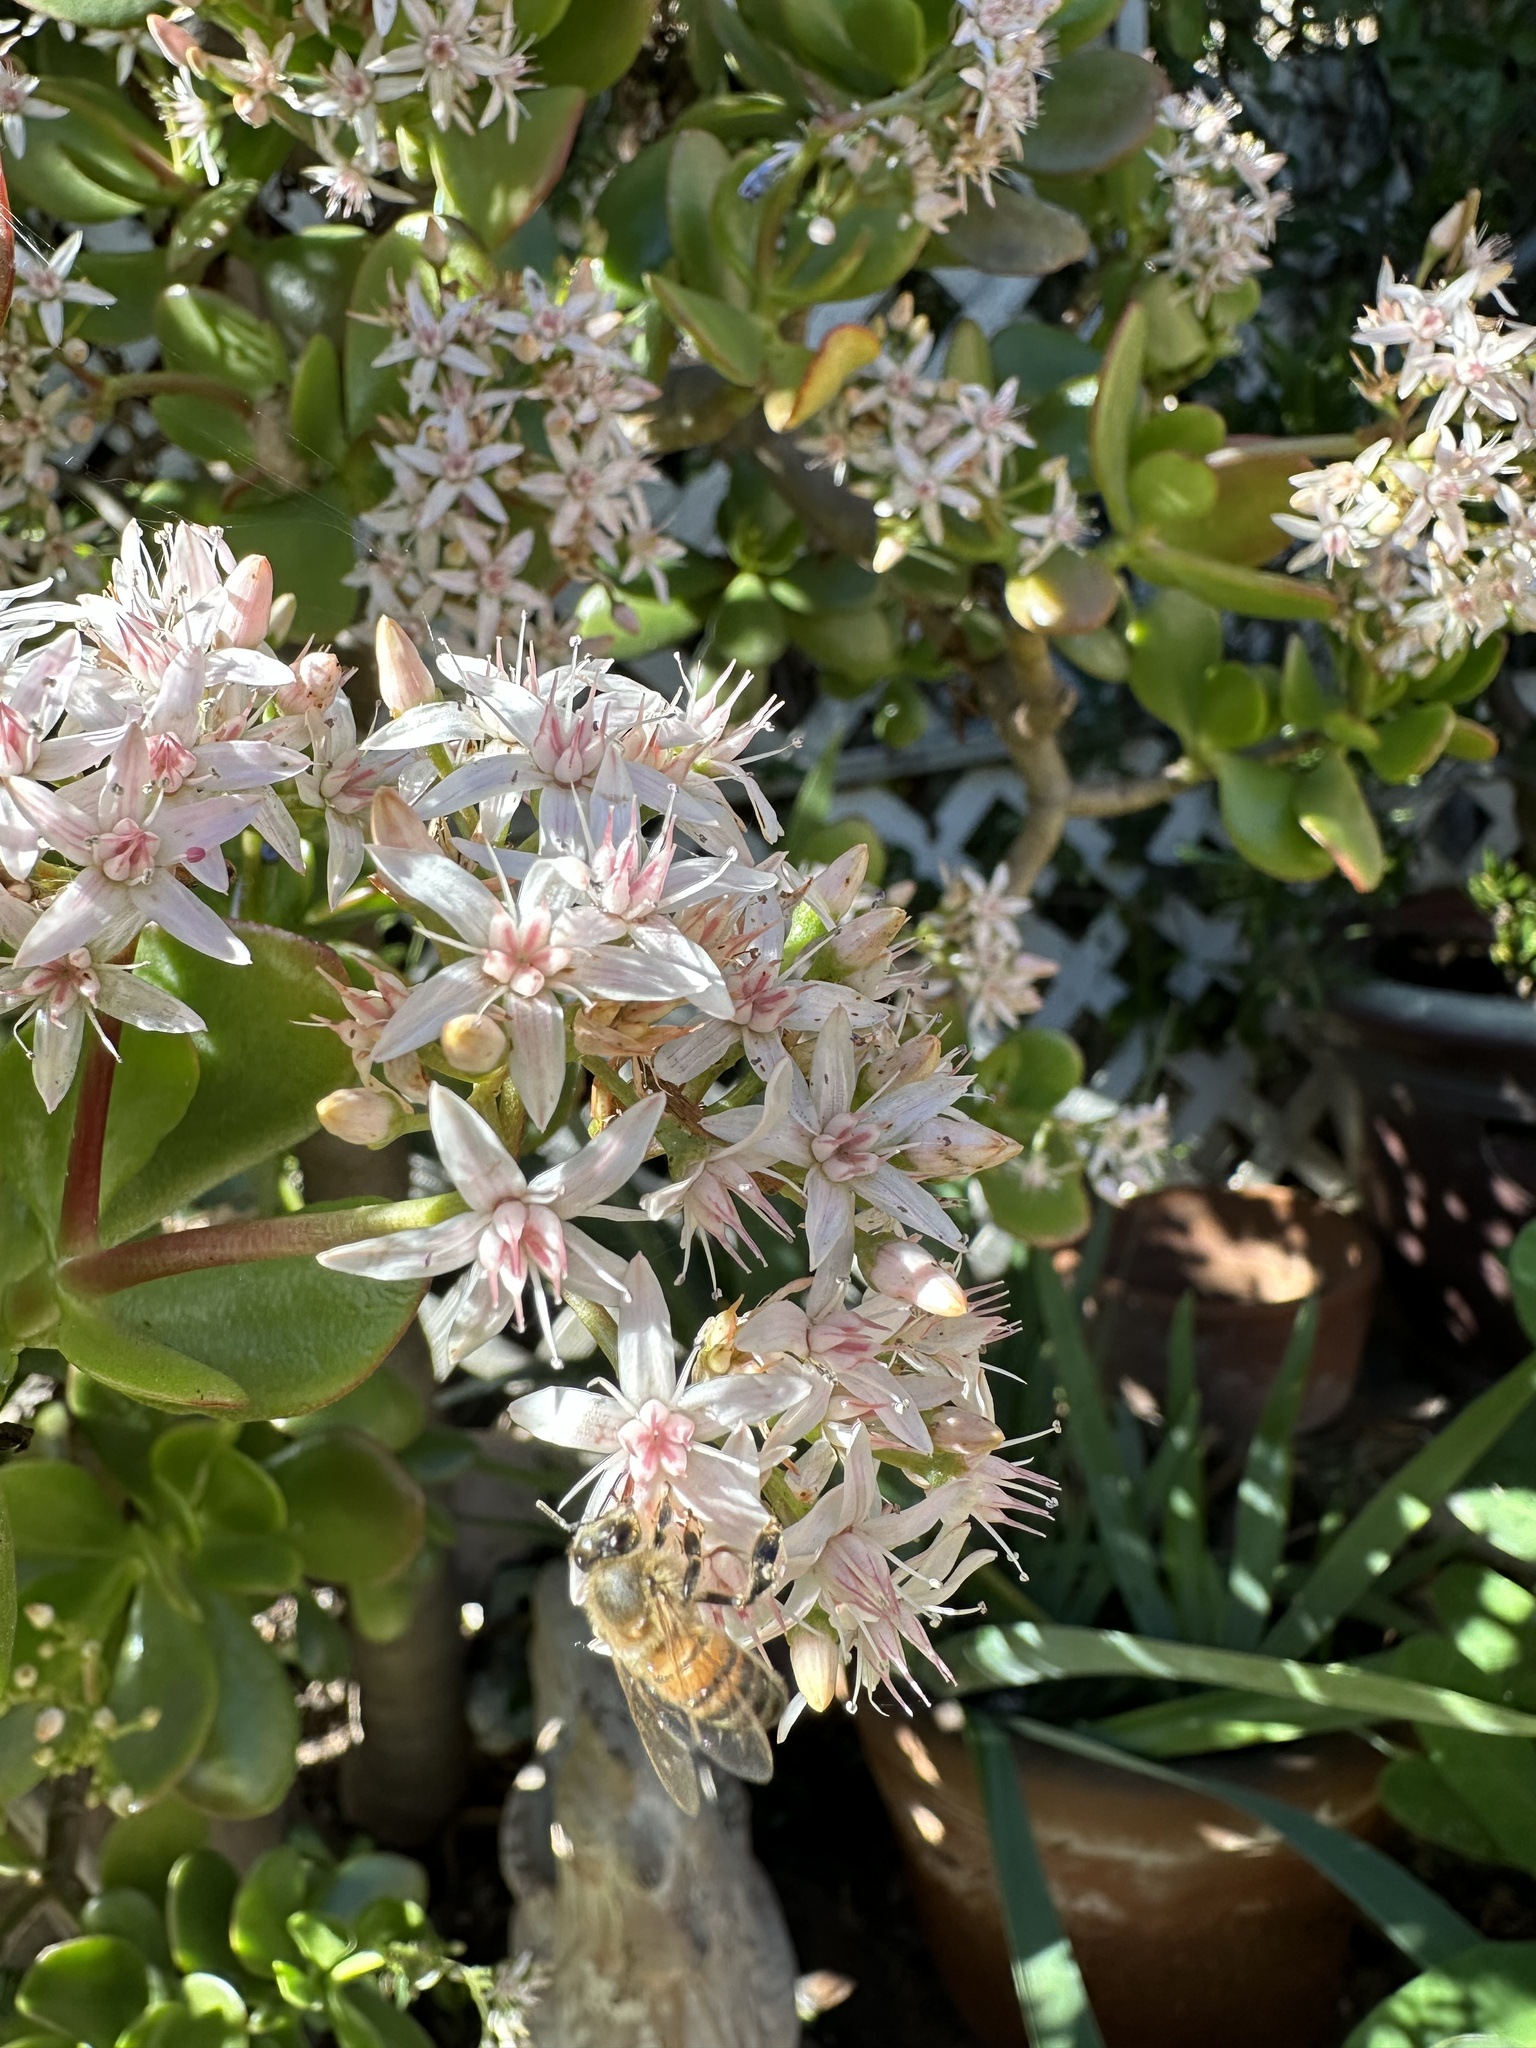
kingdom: Animalia
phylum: Arthropoda
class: Insecta
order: Hymenoptera
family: Apidae
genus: Apis
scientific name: Apis mellifera
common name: Honey bee
